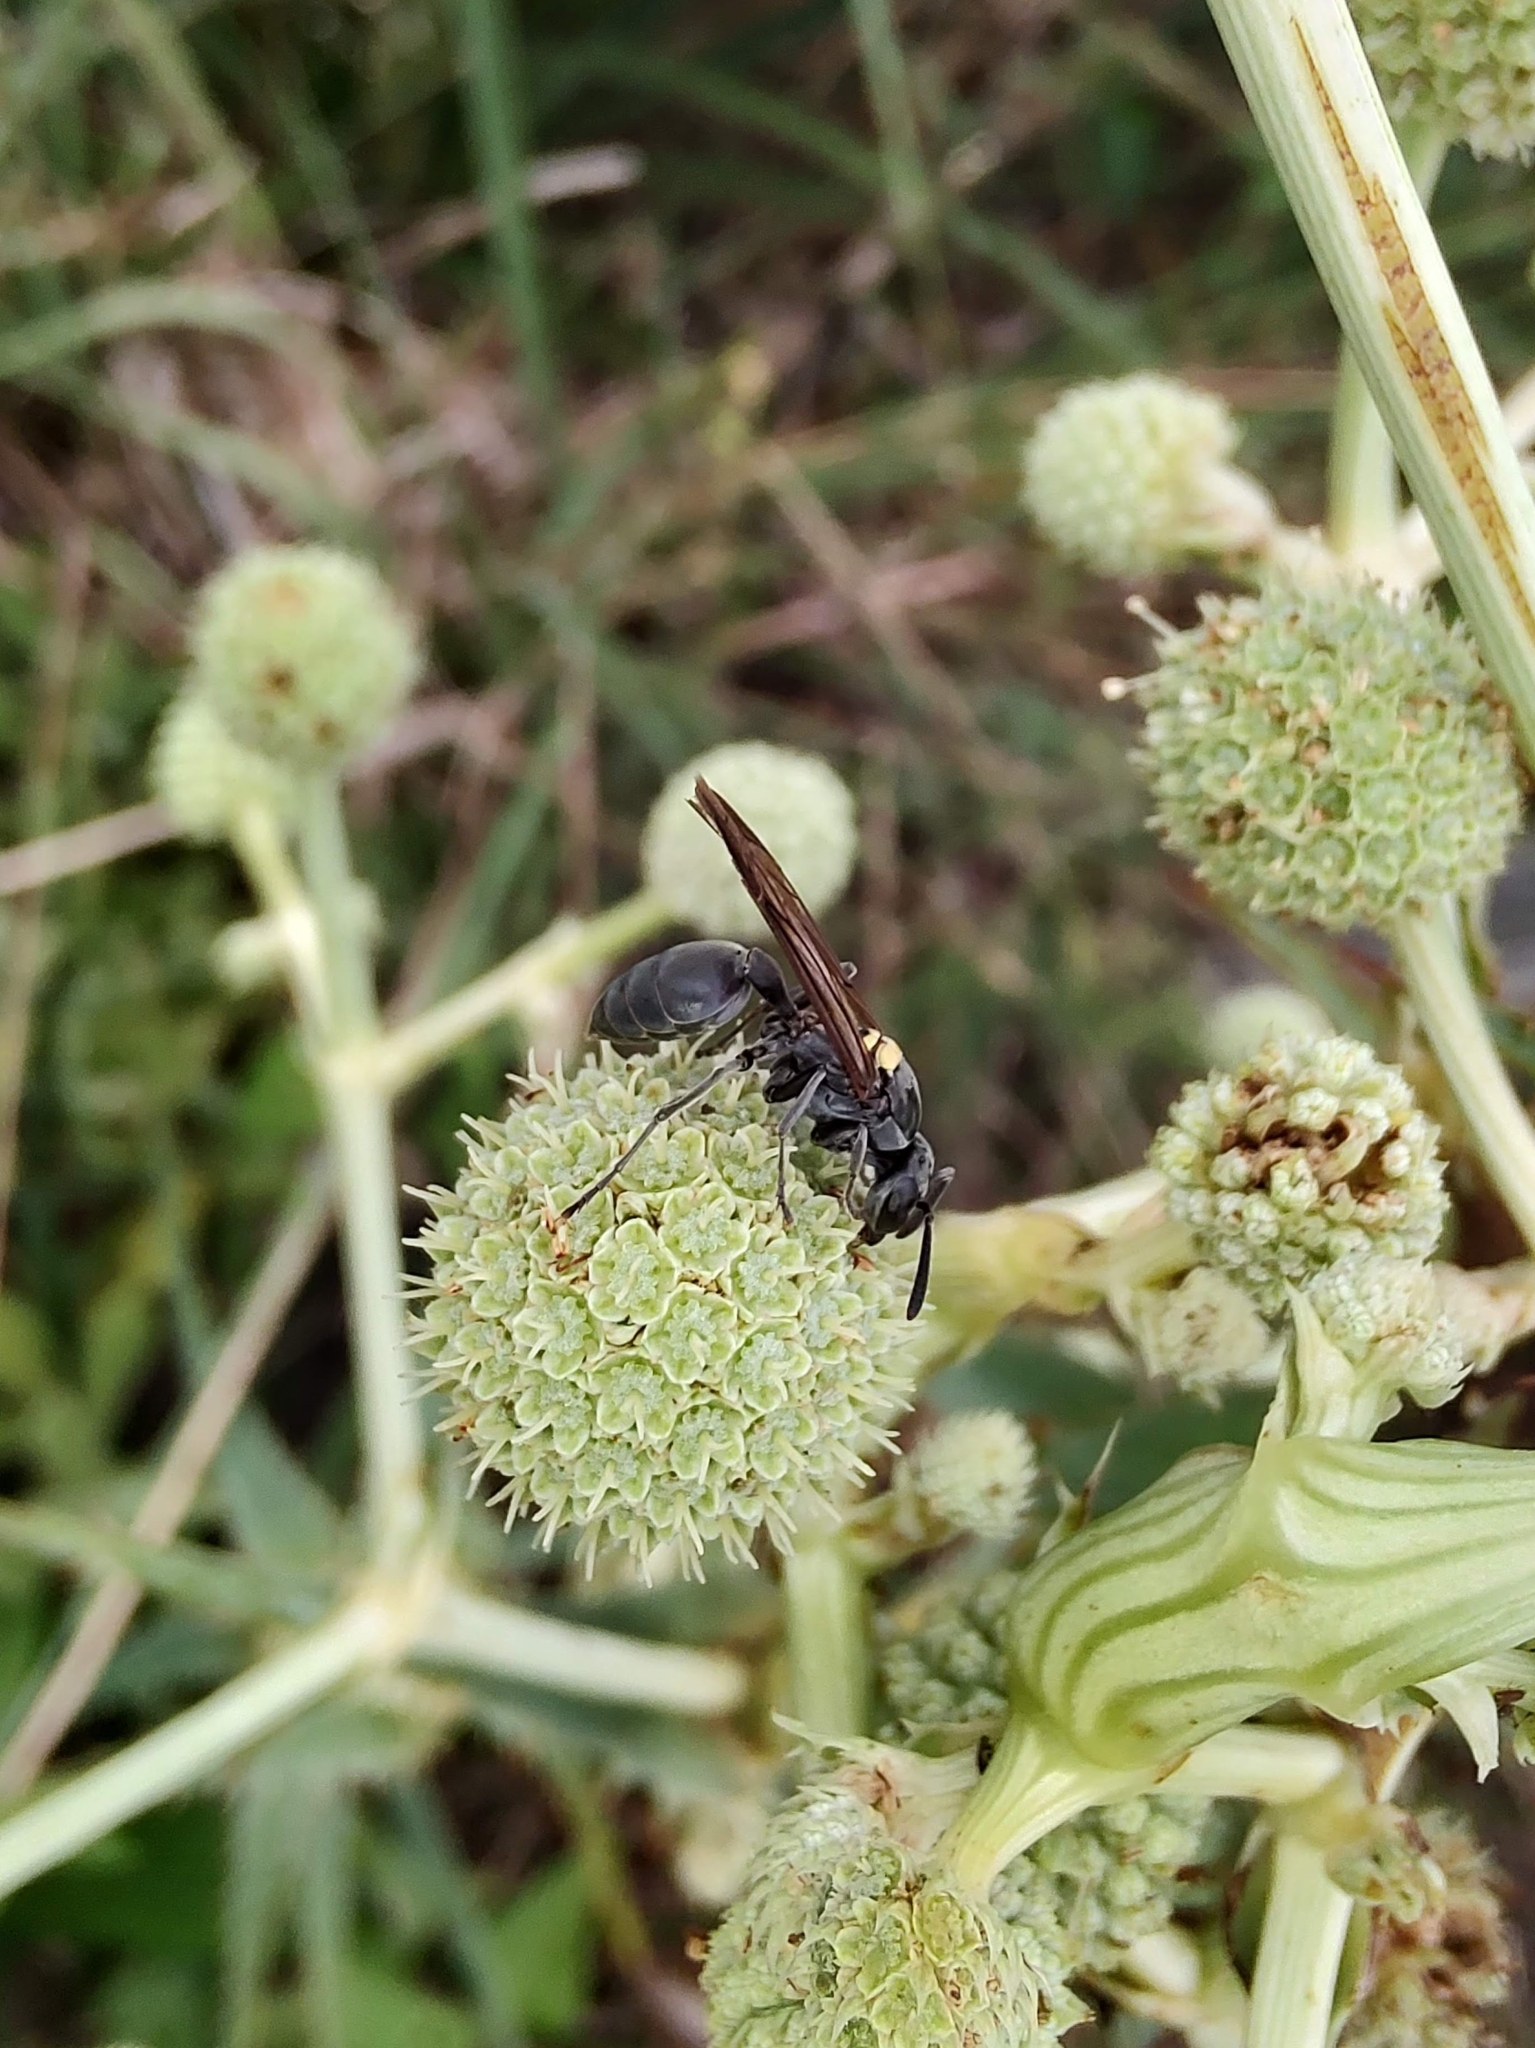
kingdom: Animalia
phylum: Arthropoda
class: Insecta
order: Hymenoptera
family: Eumenidae
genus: Polybia
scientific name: Polybia scutellaris
